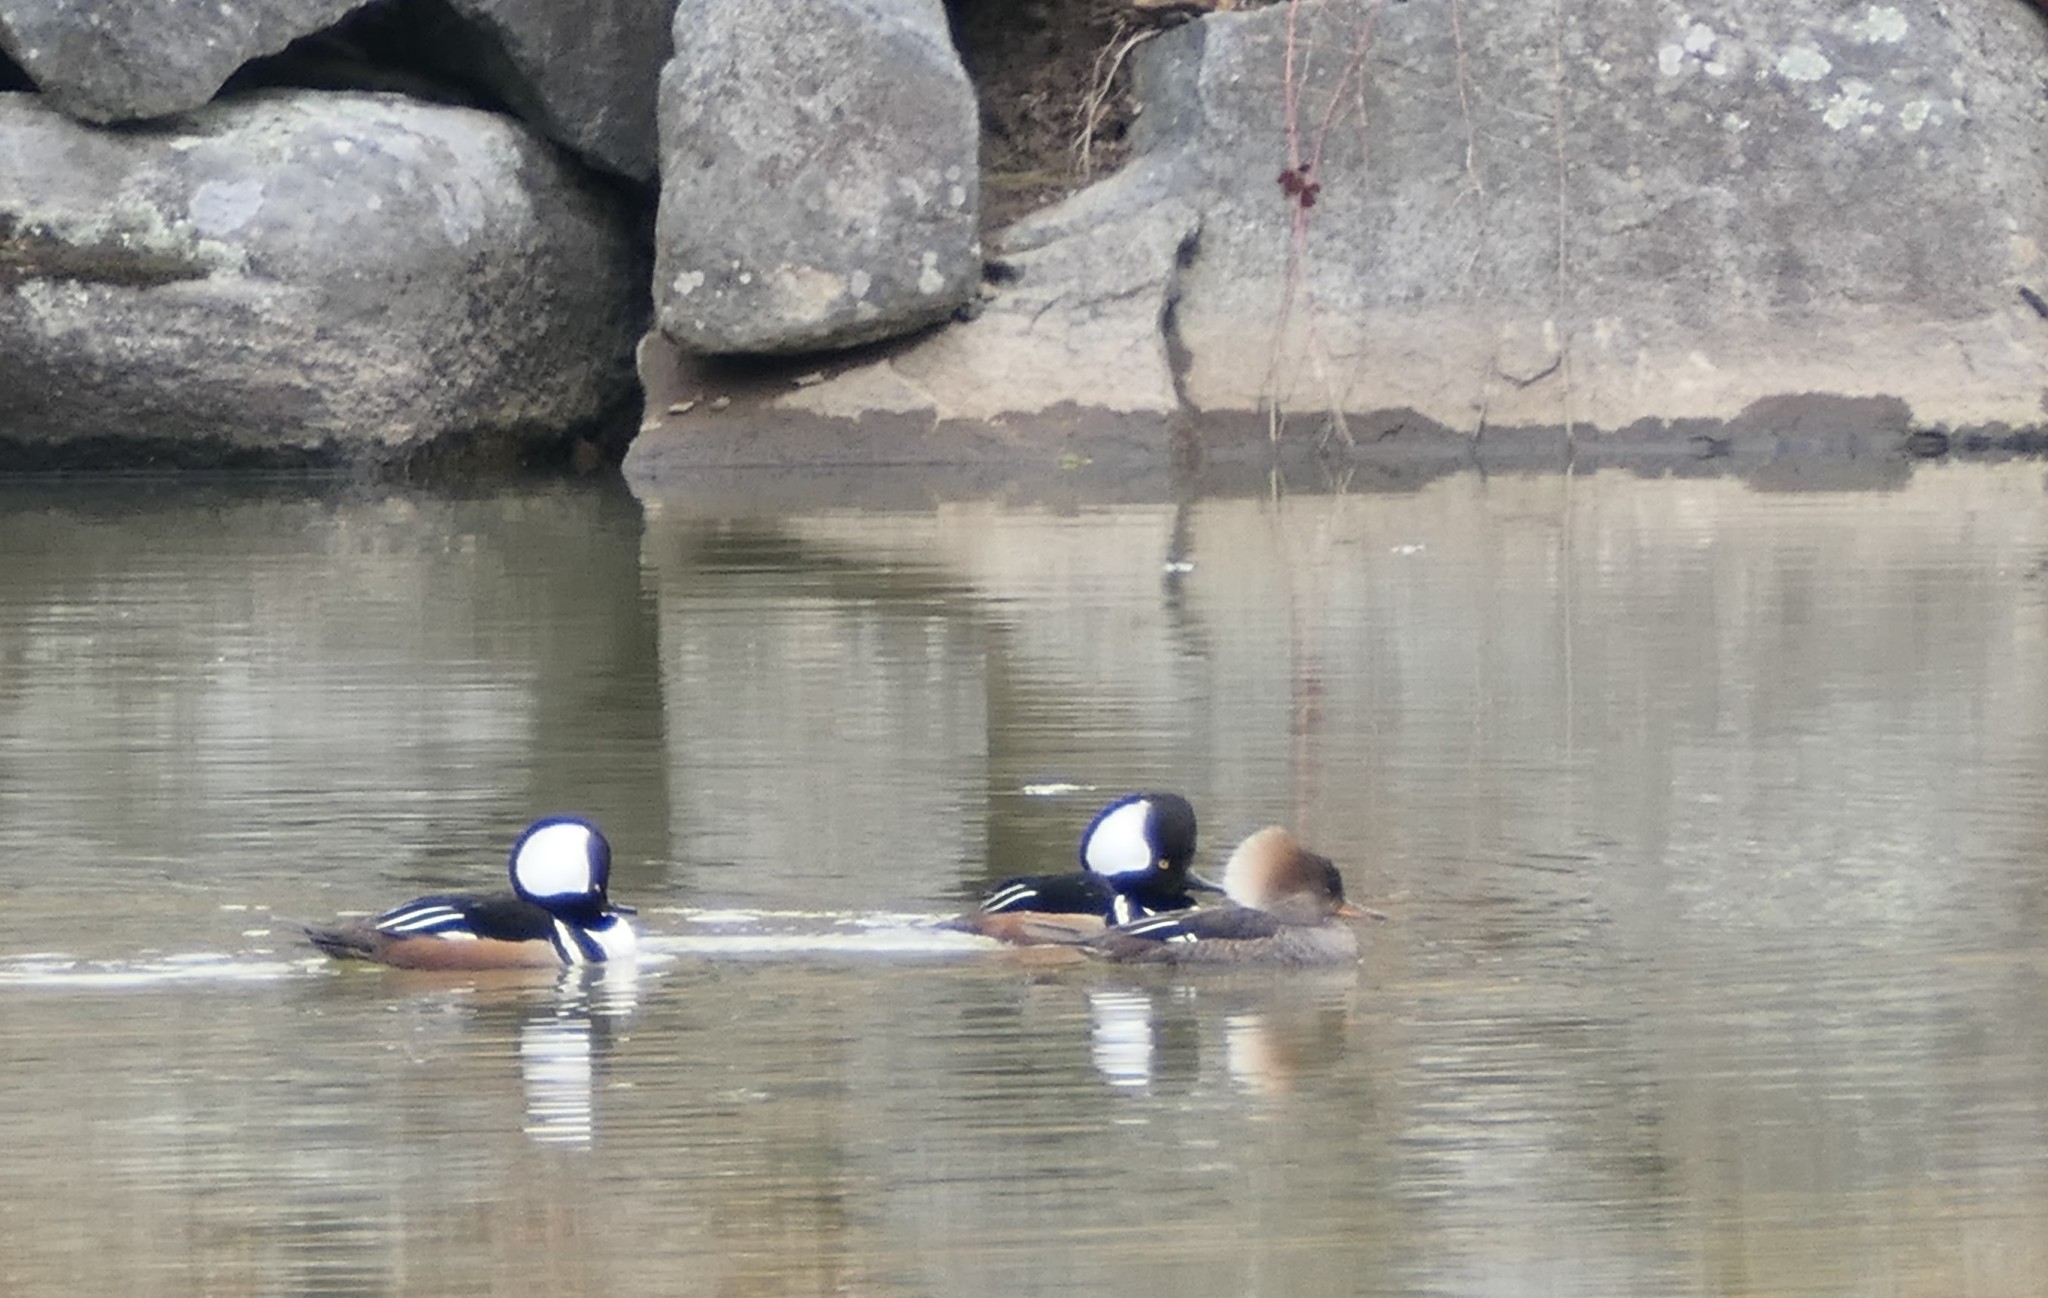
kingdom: Animalia
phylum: Chordata
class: Aves
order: Anseriformes
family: Anatidae
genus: Lophodytes
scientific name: Lophodytes cucullatus
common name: Hooded merganser
